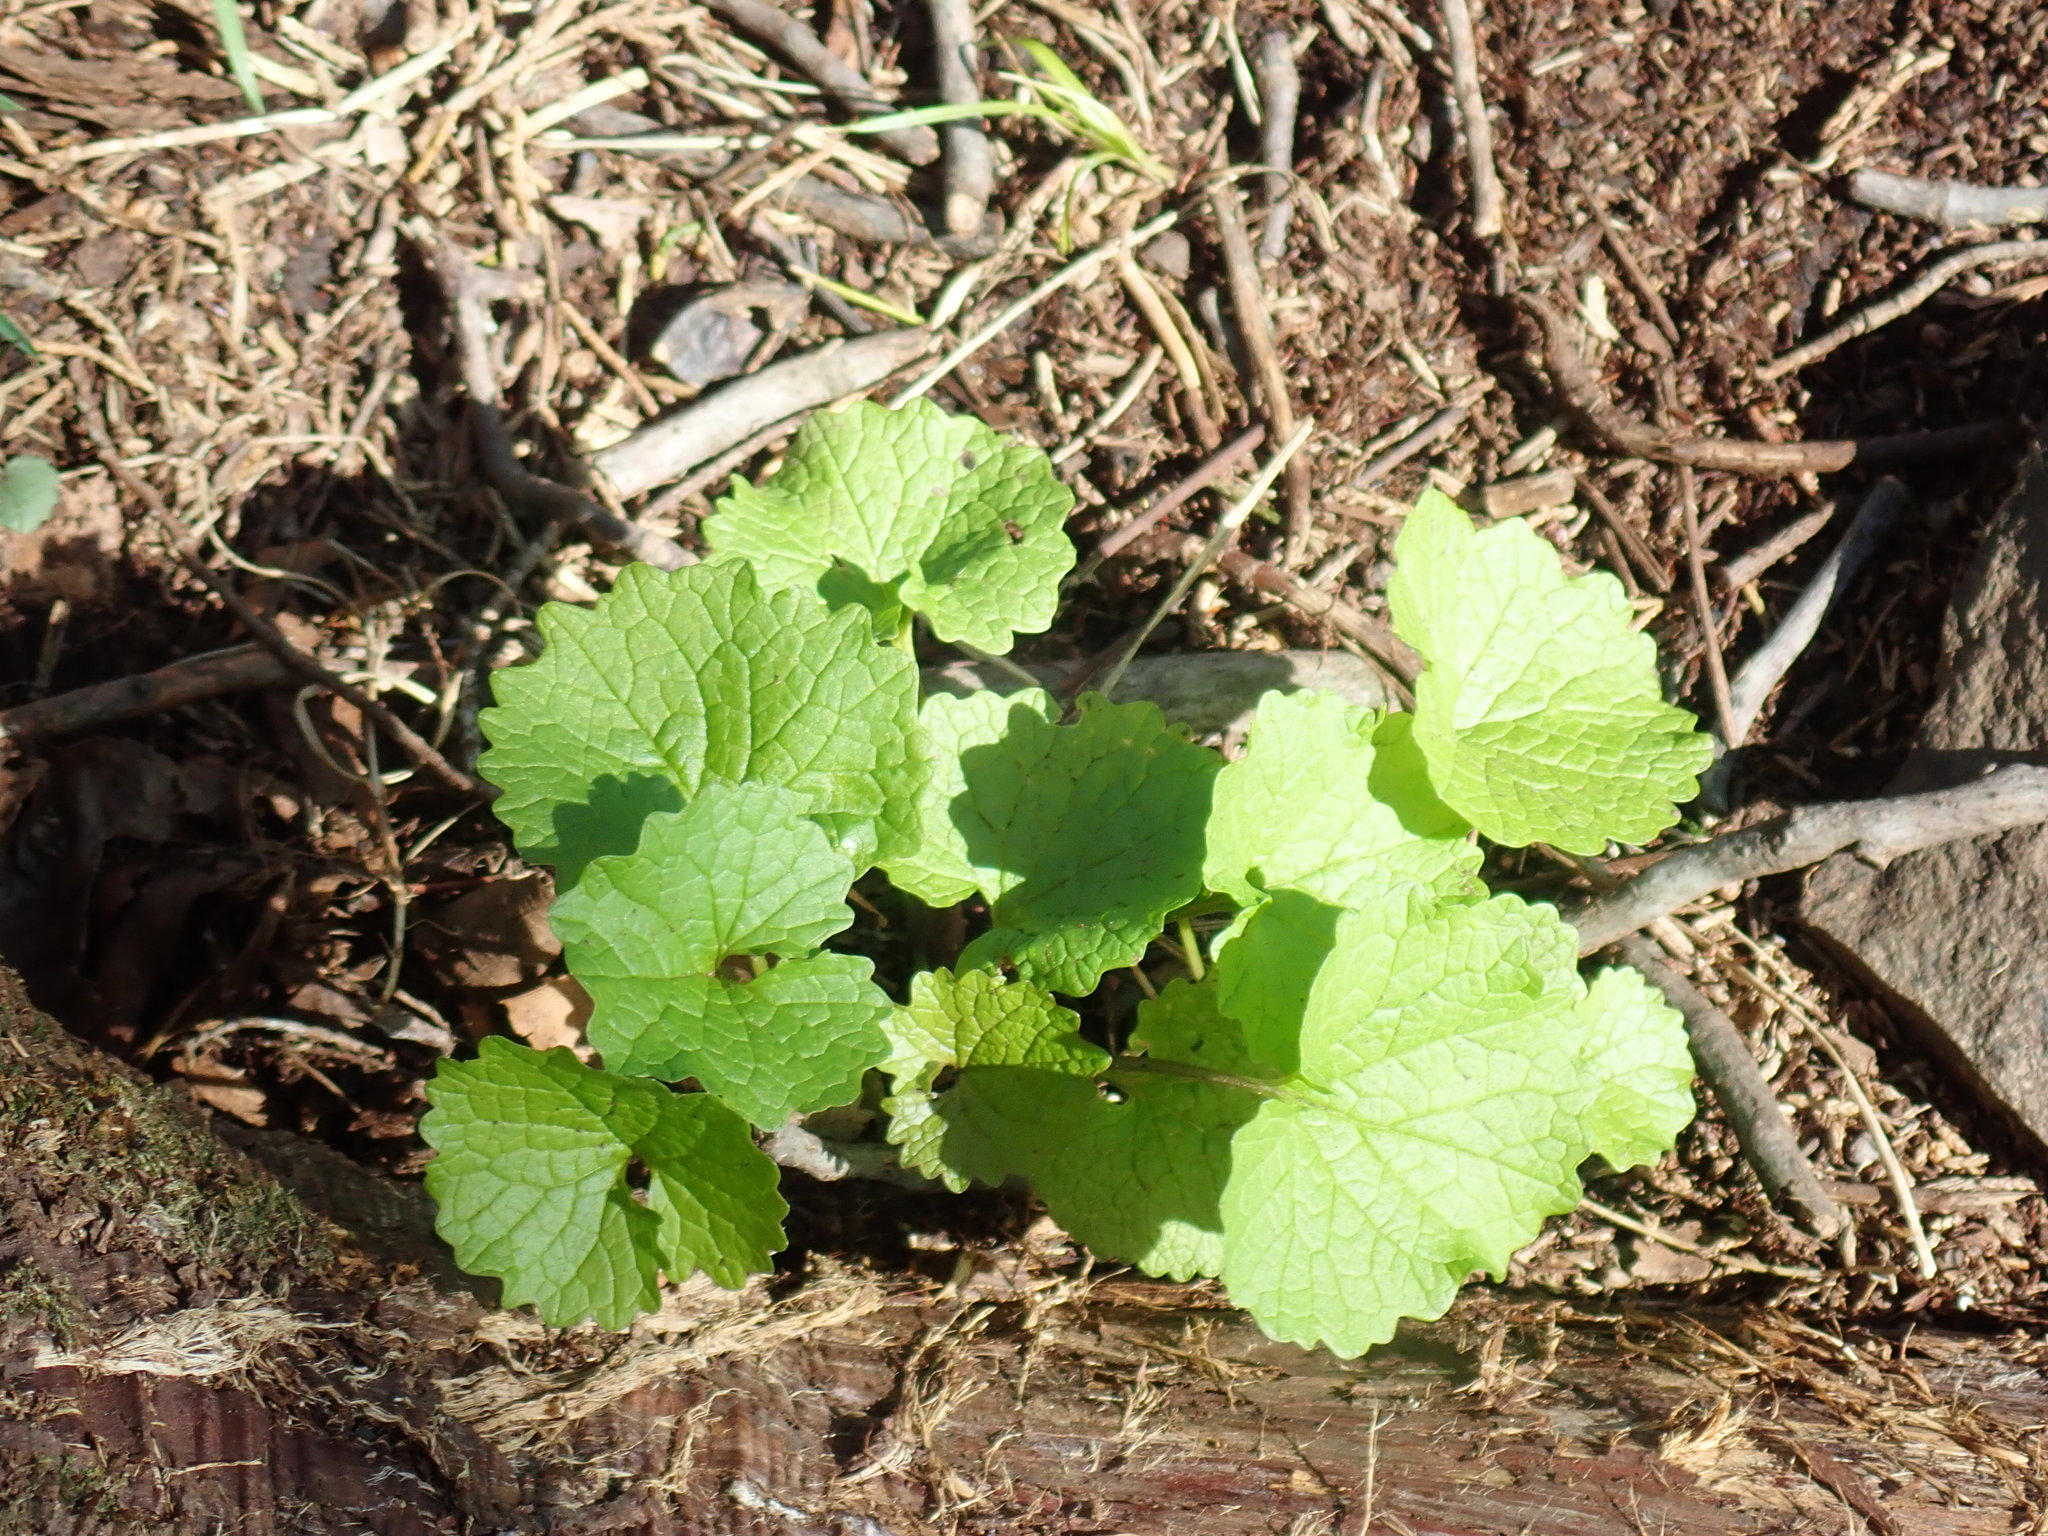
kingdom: Plantae
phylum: Tracheophyta
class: Magnoliopsida
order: Brassicales
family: Brassicaceae
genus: Alliaria
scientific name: Alliaria petiolata
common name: Garlic mustard
